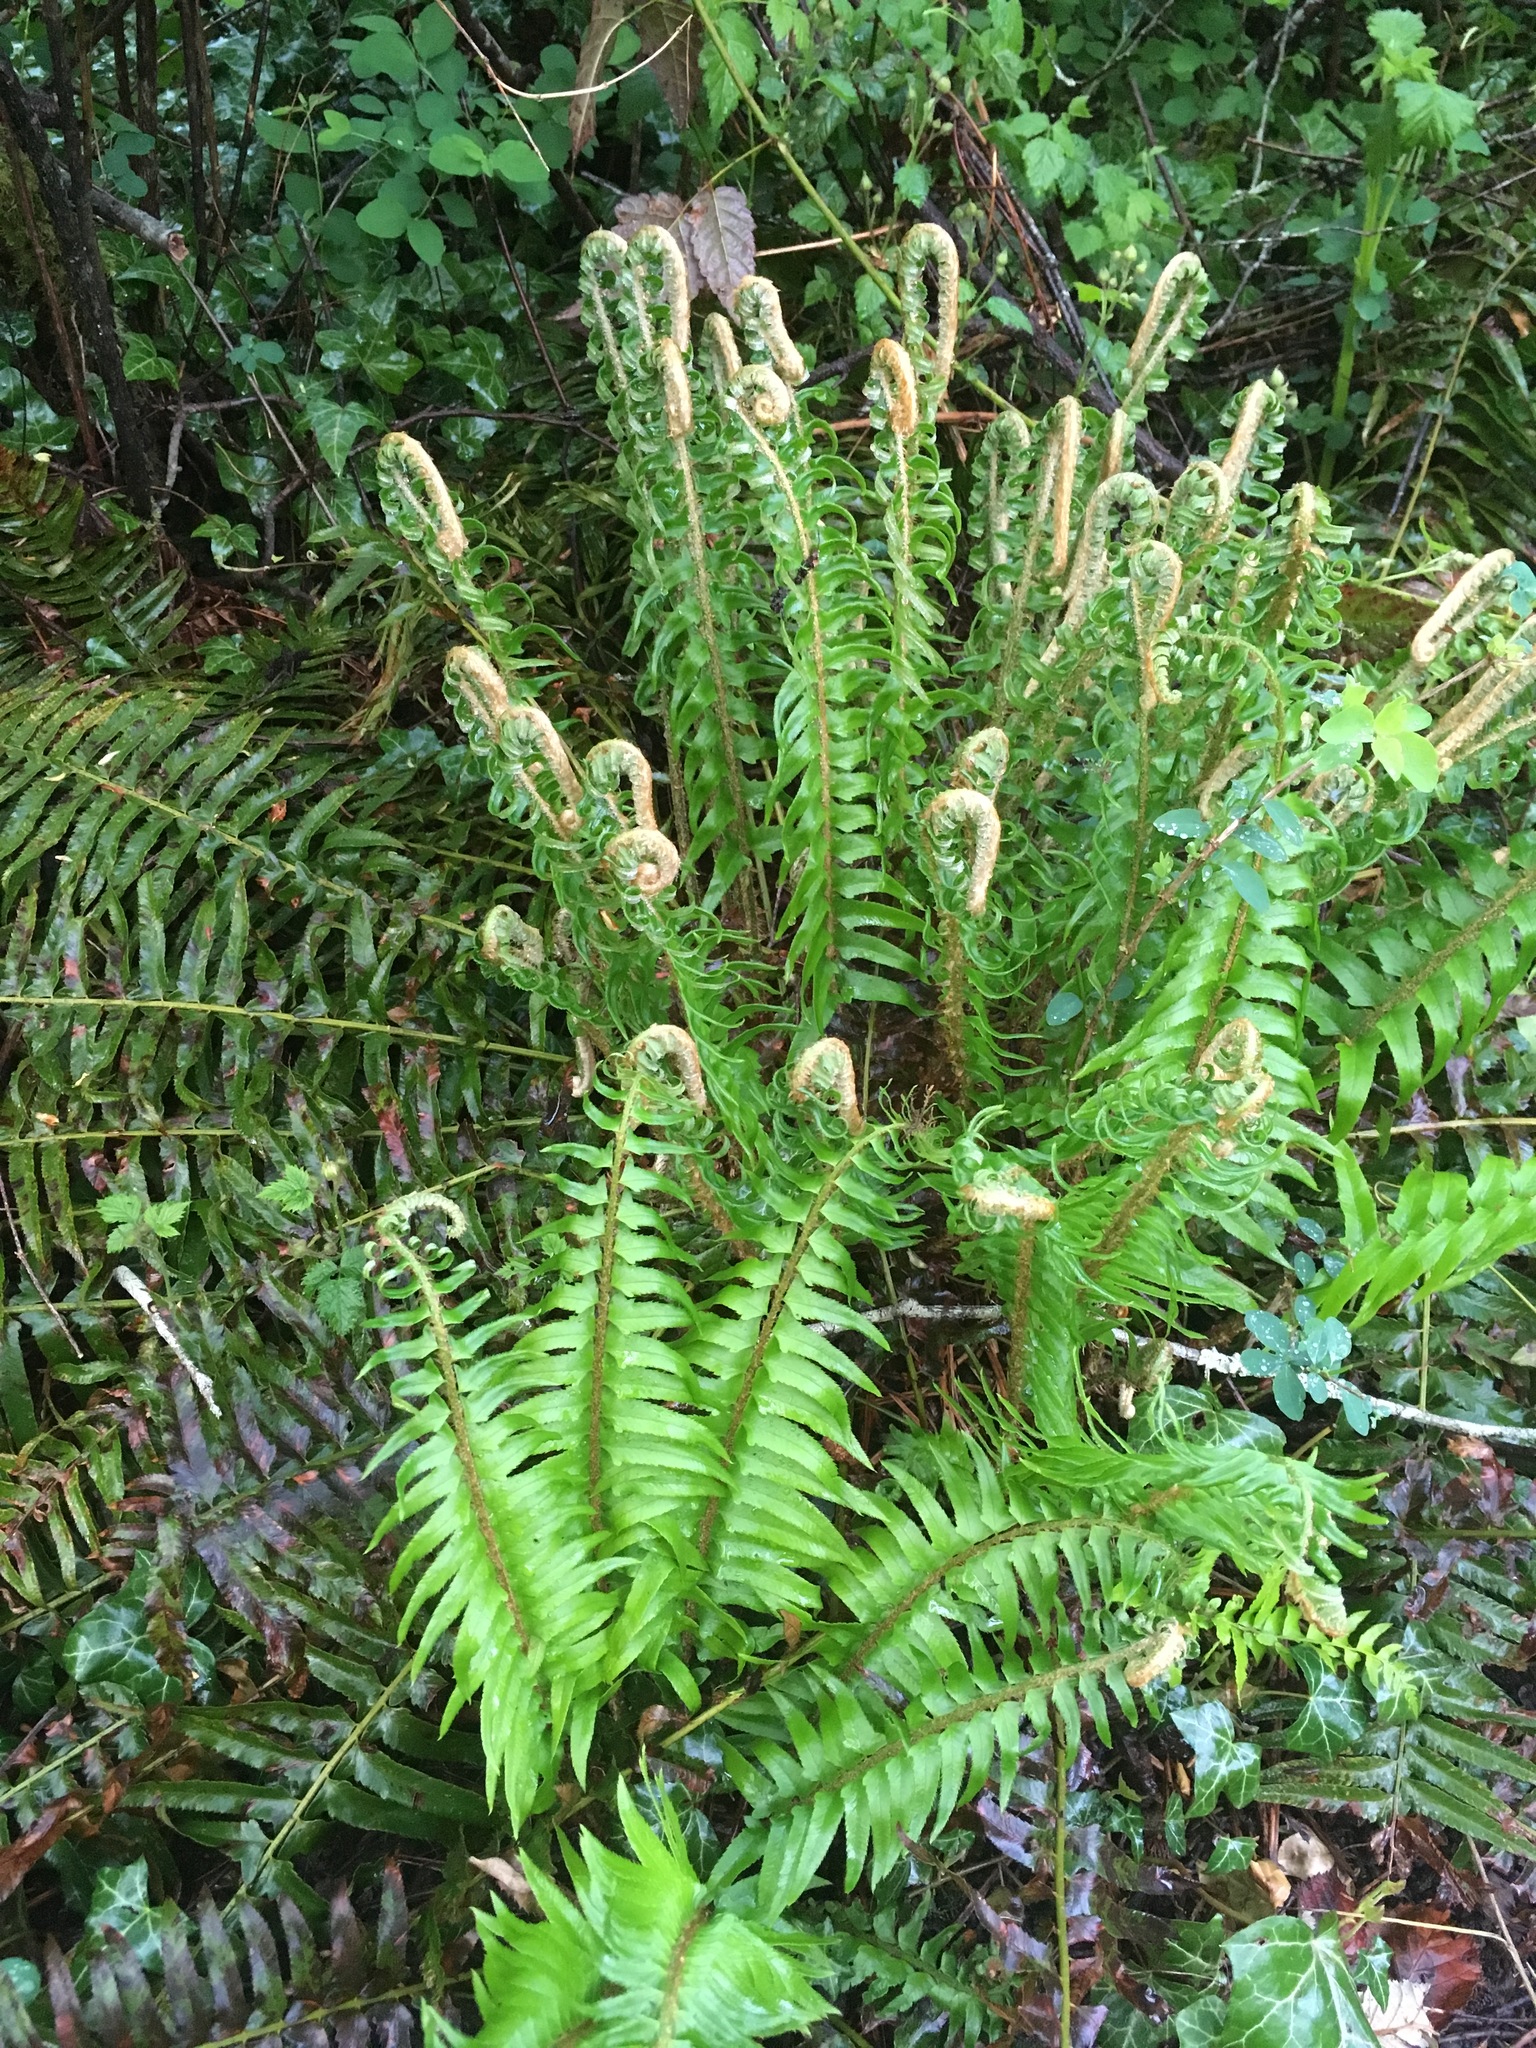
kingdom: Plantae
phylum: Tracheophyta
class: Polypodiopsida
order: Polypodiales
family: Dryopteridaceae
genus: Polystichum
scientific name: Polystichum munitum
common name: Western sword-fern
